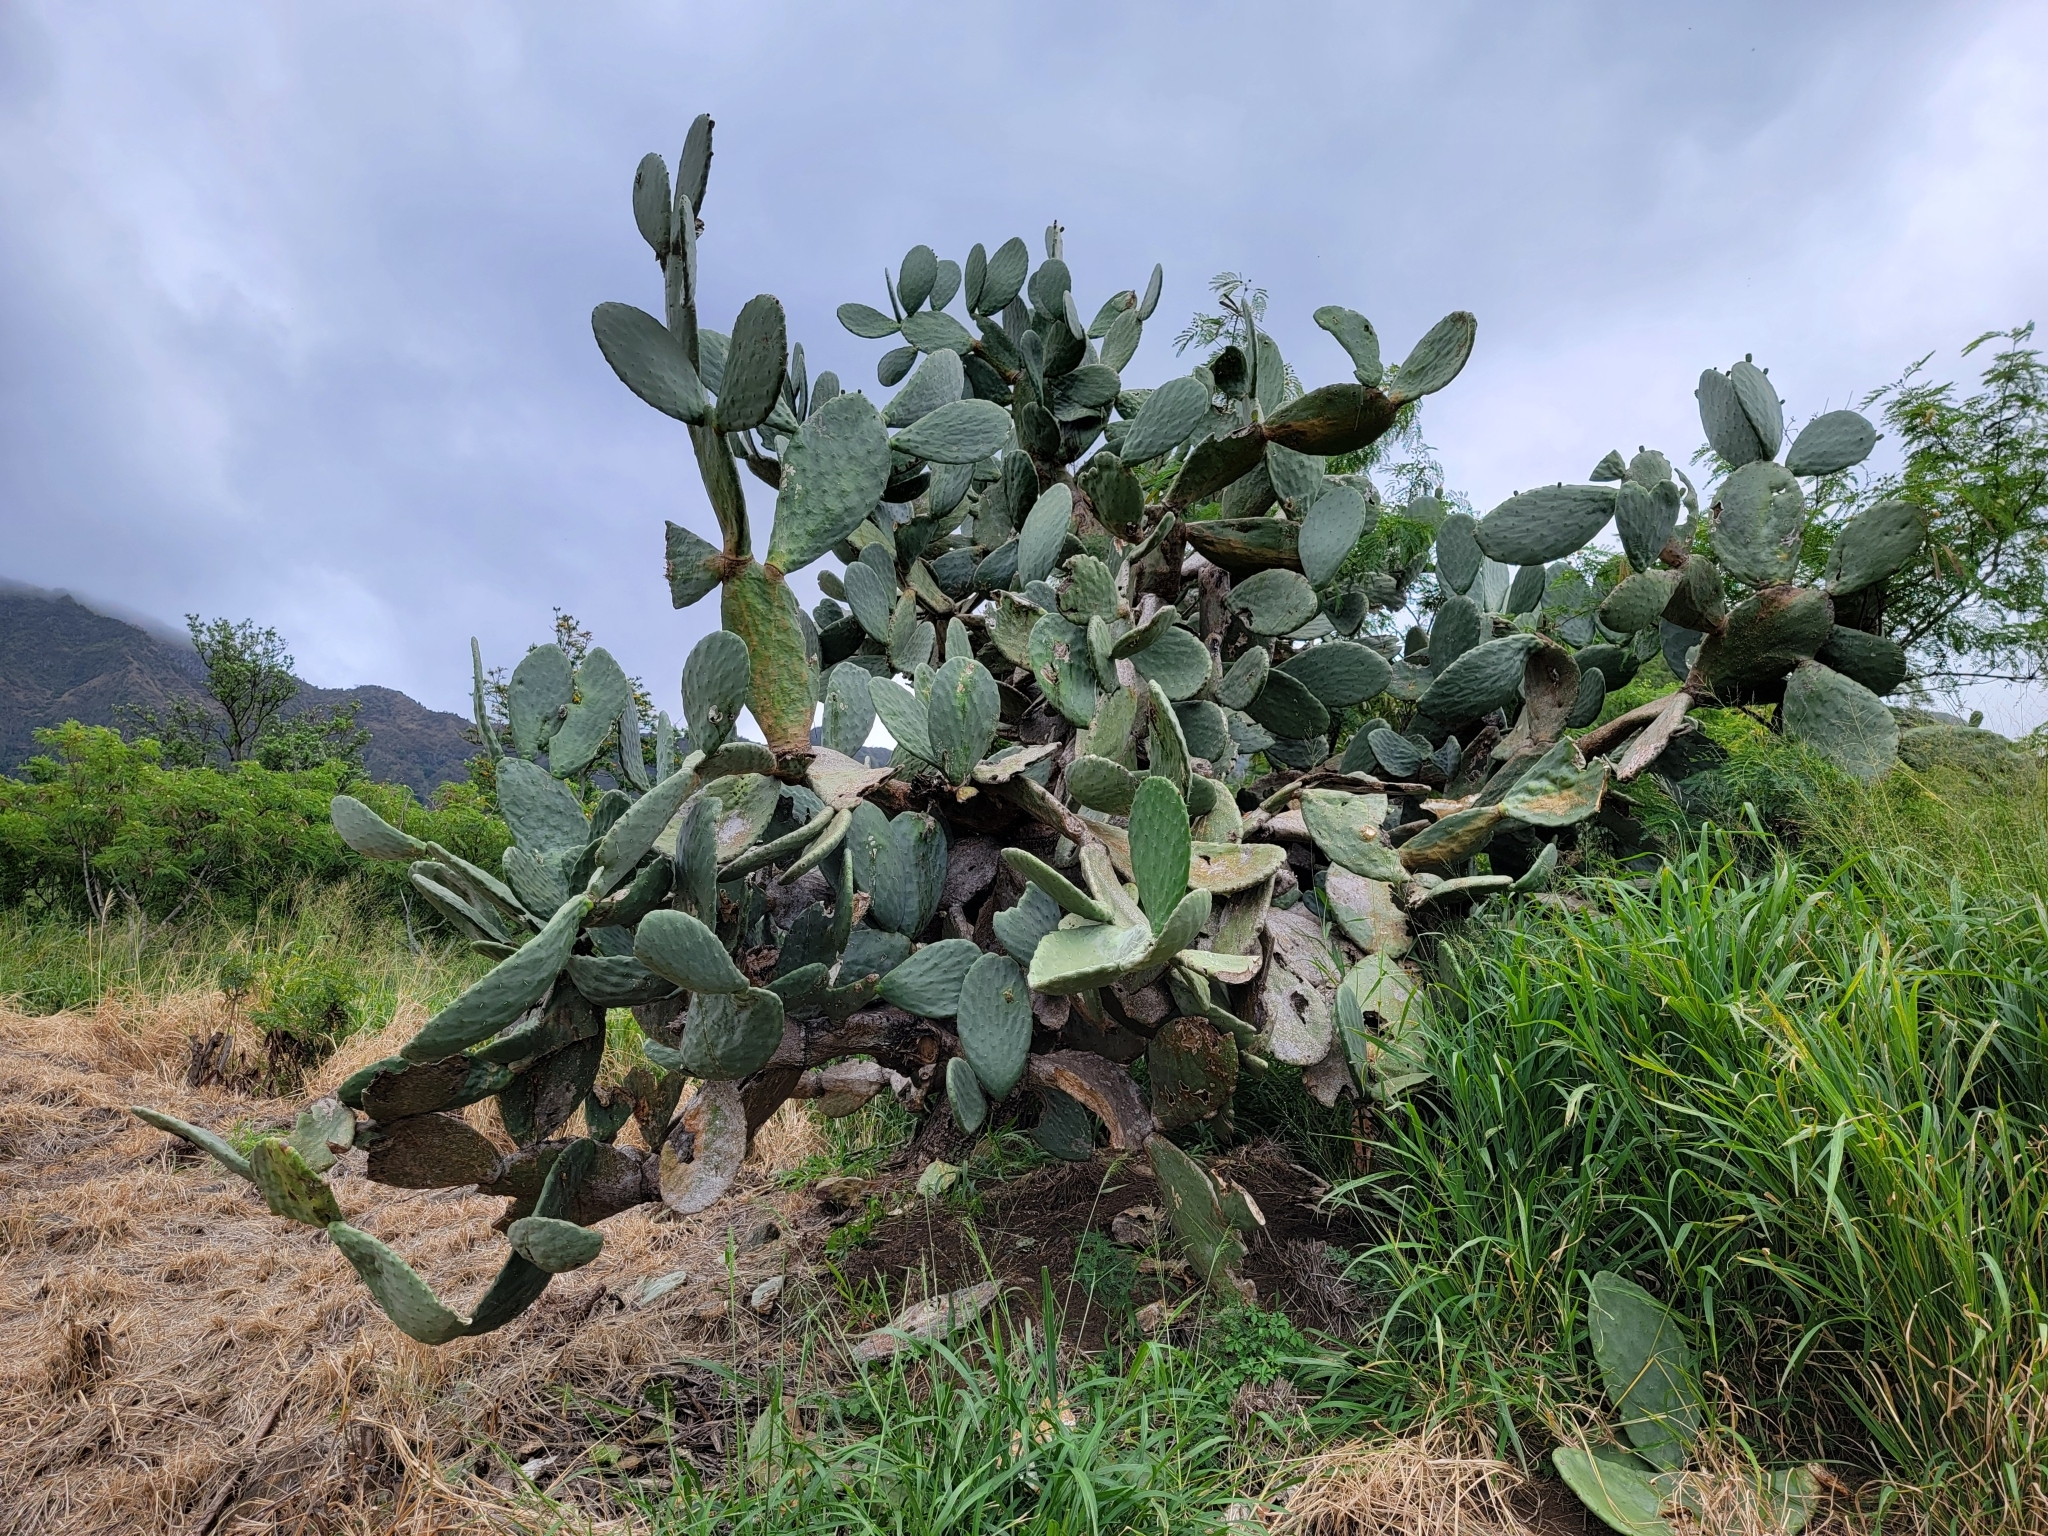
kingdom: Plantae
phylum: Tracheophyta
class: Magnoliopsida
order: Caryophyllales
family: Cactaceae
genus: Opuntia
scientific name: Opuntia ficus-indica
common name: Barbary fig
